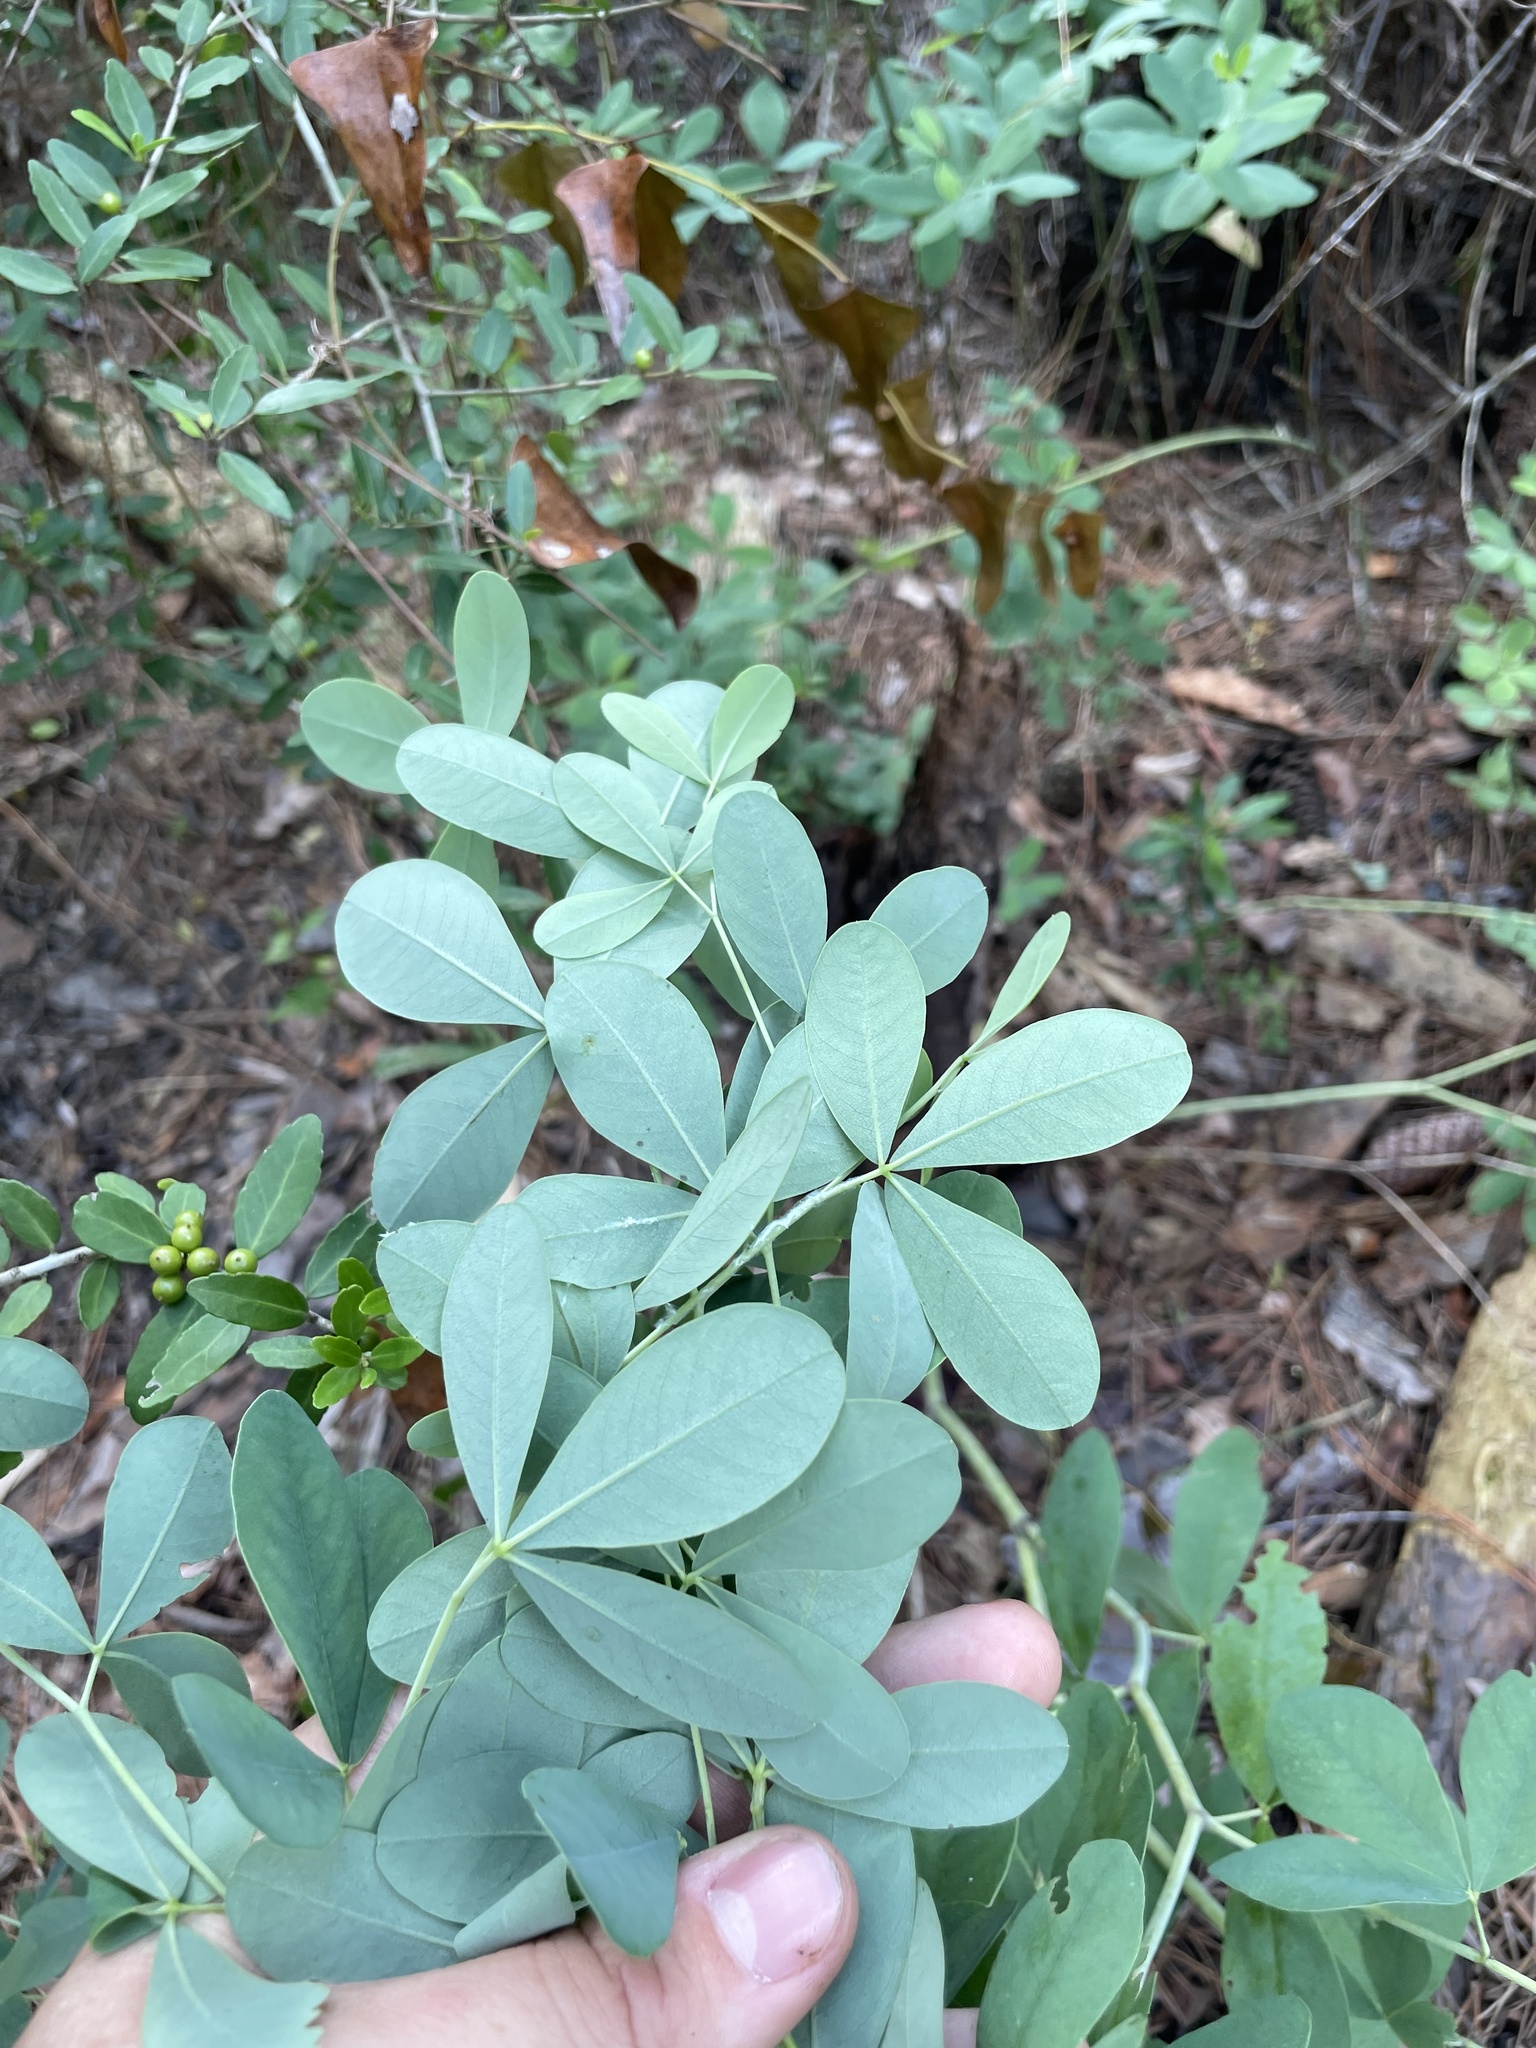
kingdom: Plantae
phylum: Tracheophyta
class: Magnoliopsida
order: Fabales
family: Fabaceae
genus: Baptisia
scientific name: Baptisia sphaerocarpa
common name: Round wild indigo
